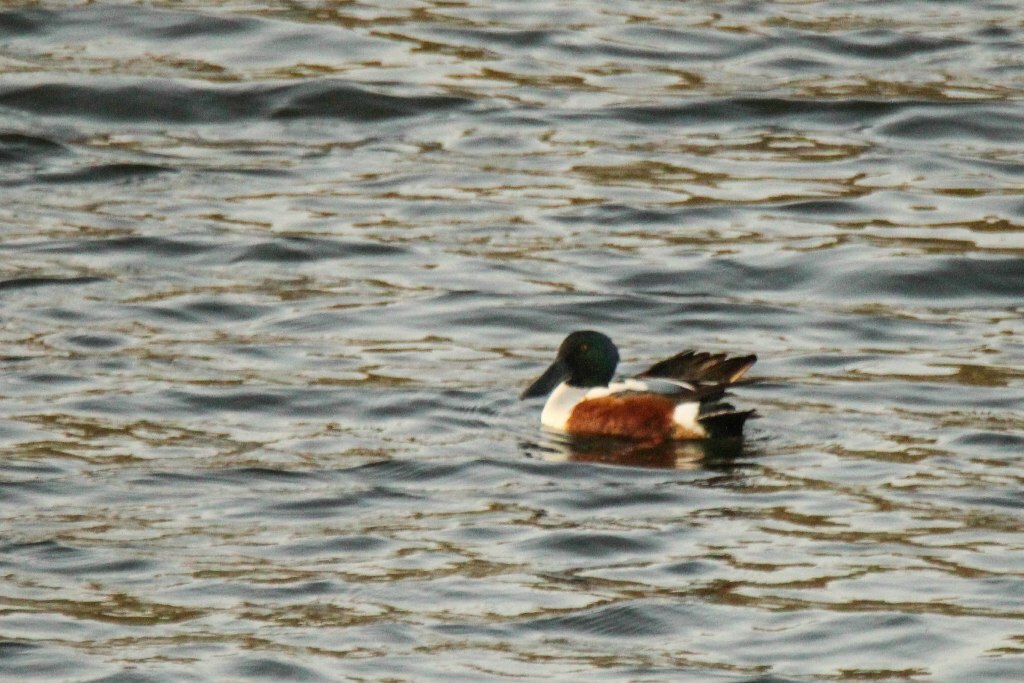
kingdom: Animalia
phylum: Chordata
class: Aves
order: Anseriformes
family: Anatidae
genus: Spatula
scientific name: Spatula clypeata
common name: Northern shoveler
